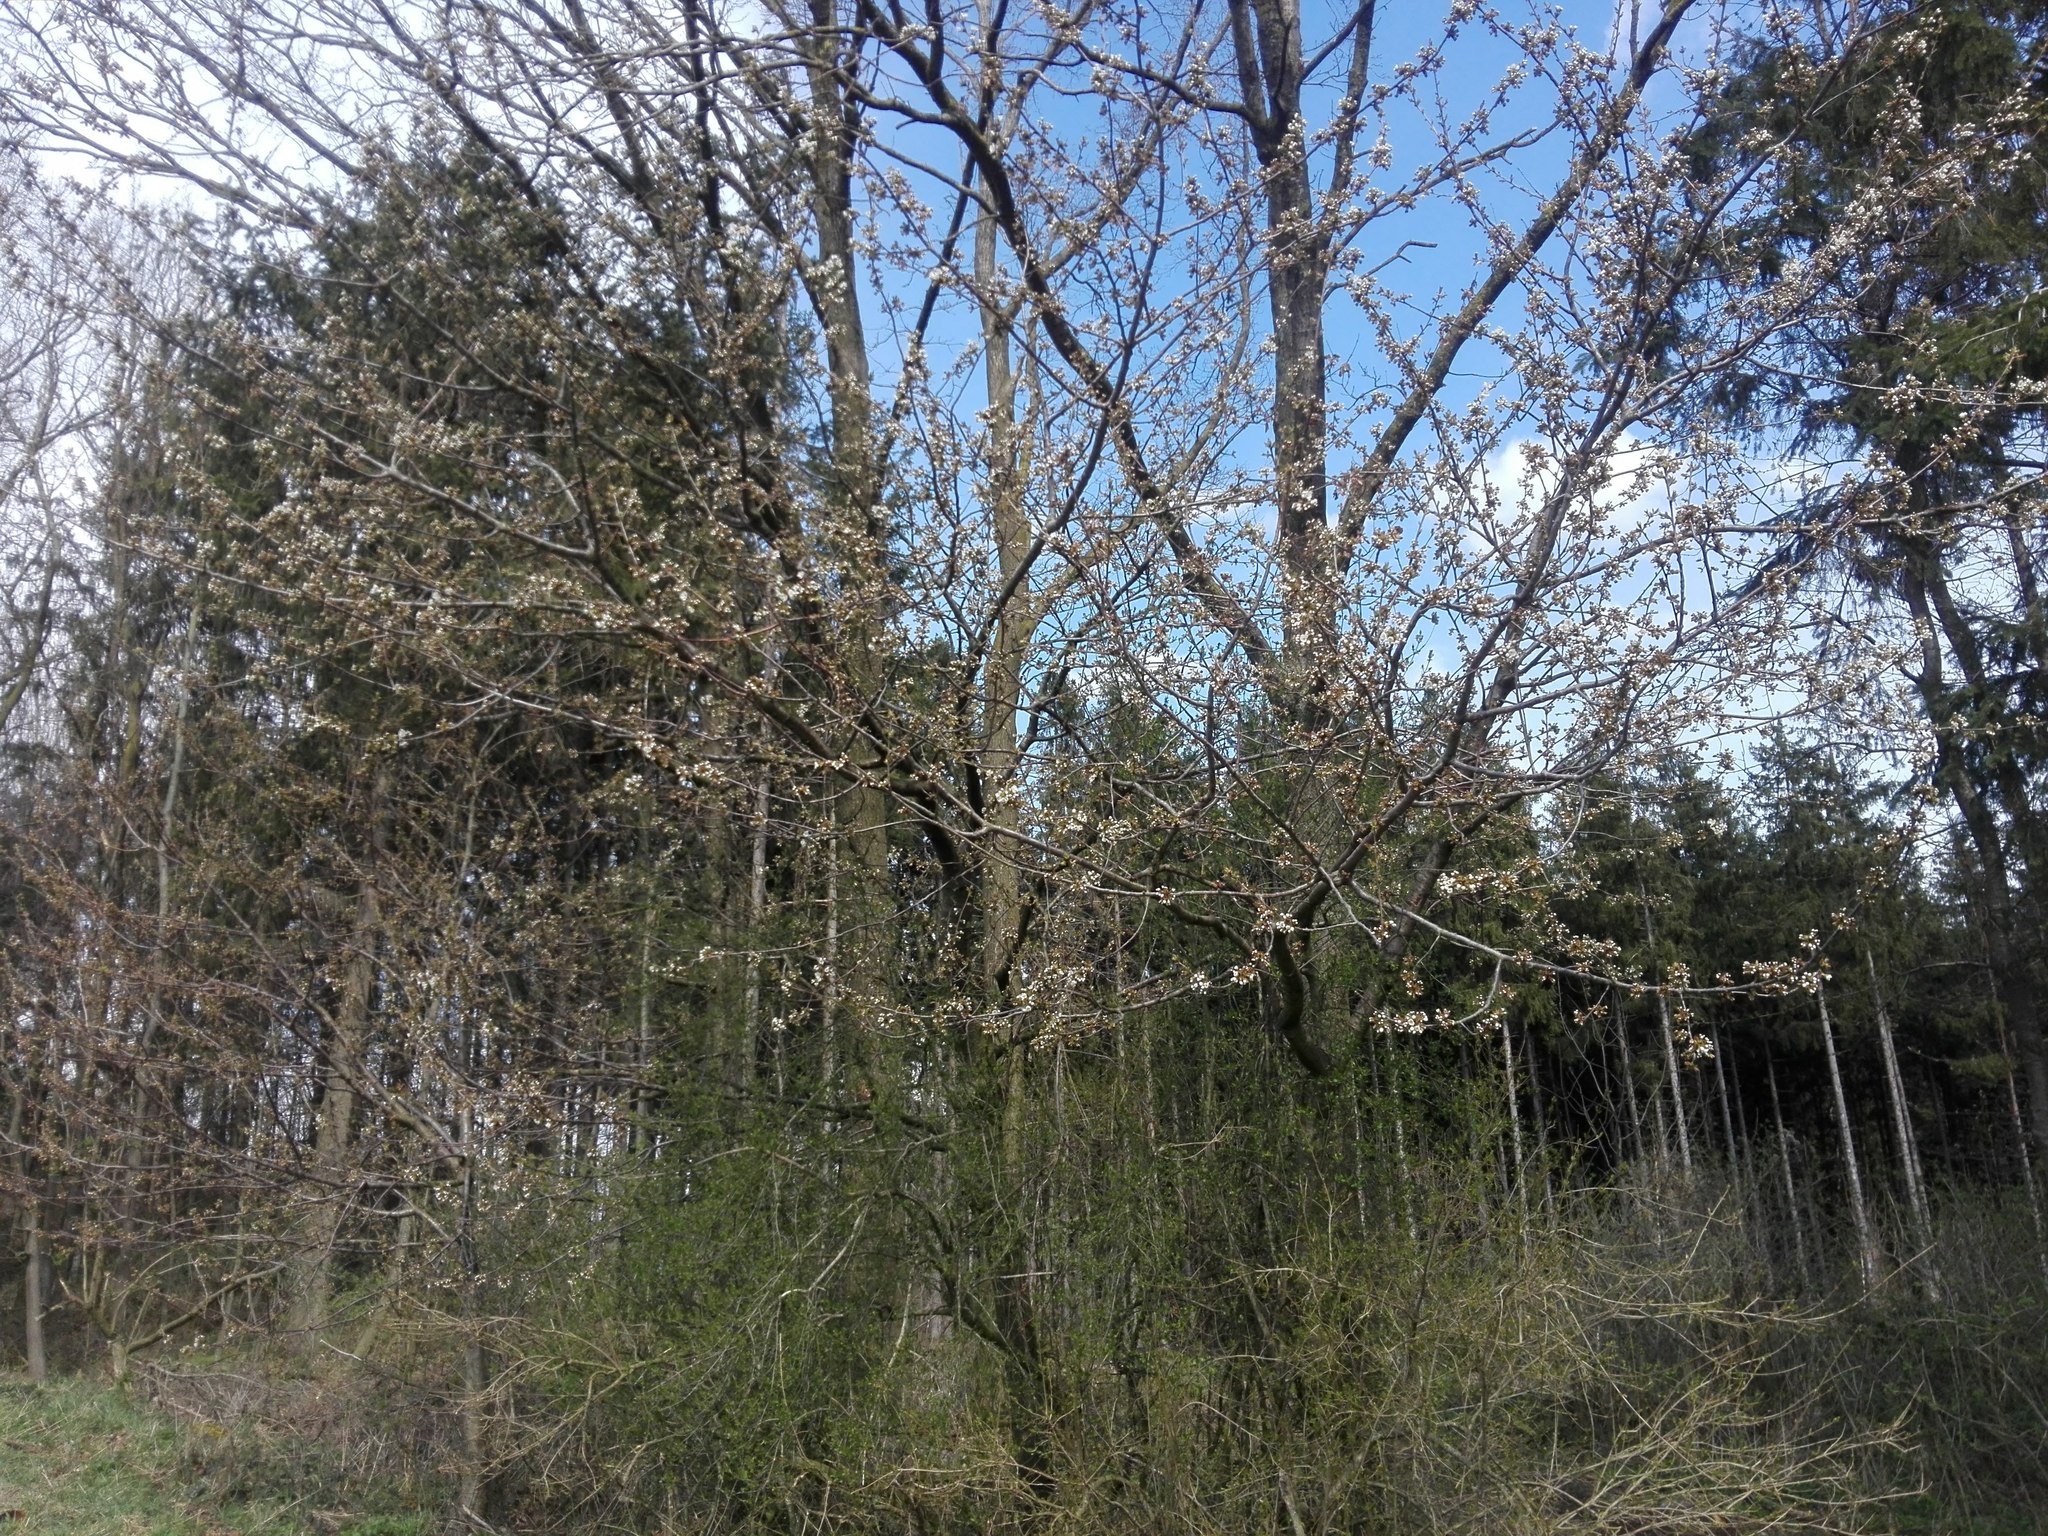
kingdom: Plantae
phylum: Tracheophyta
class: Magnoliopsida
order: Rosales
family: Rosaceae
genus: Prunus
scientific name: Prunus avium
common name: Sweet cherry
